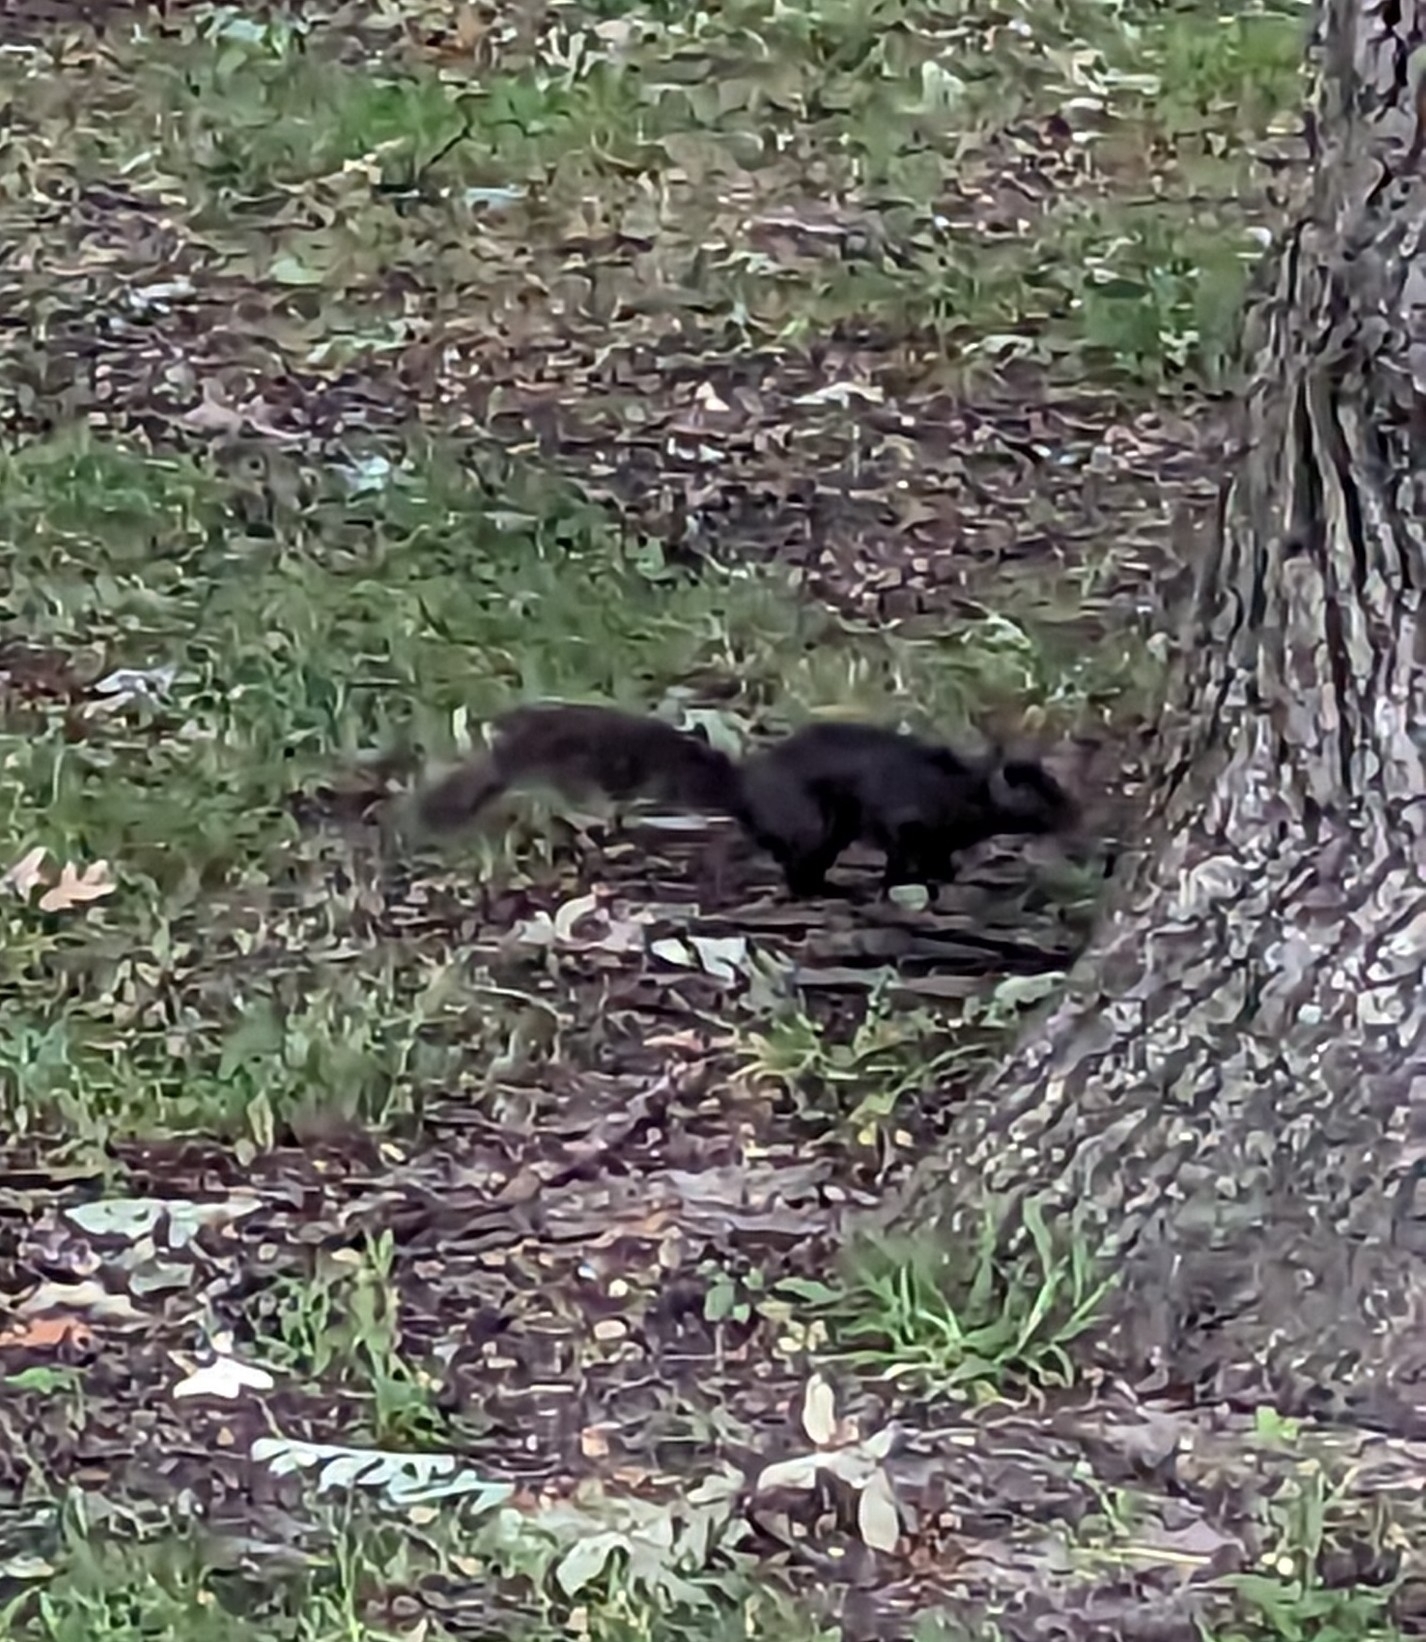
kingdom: Animalia
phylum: Chordata
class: Mammalia
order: Rodentia
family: Sciuridae
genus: Sciurus
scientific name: Sciurus carolinensis
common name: Eastern gray squirrel
